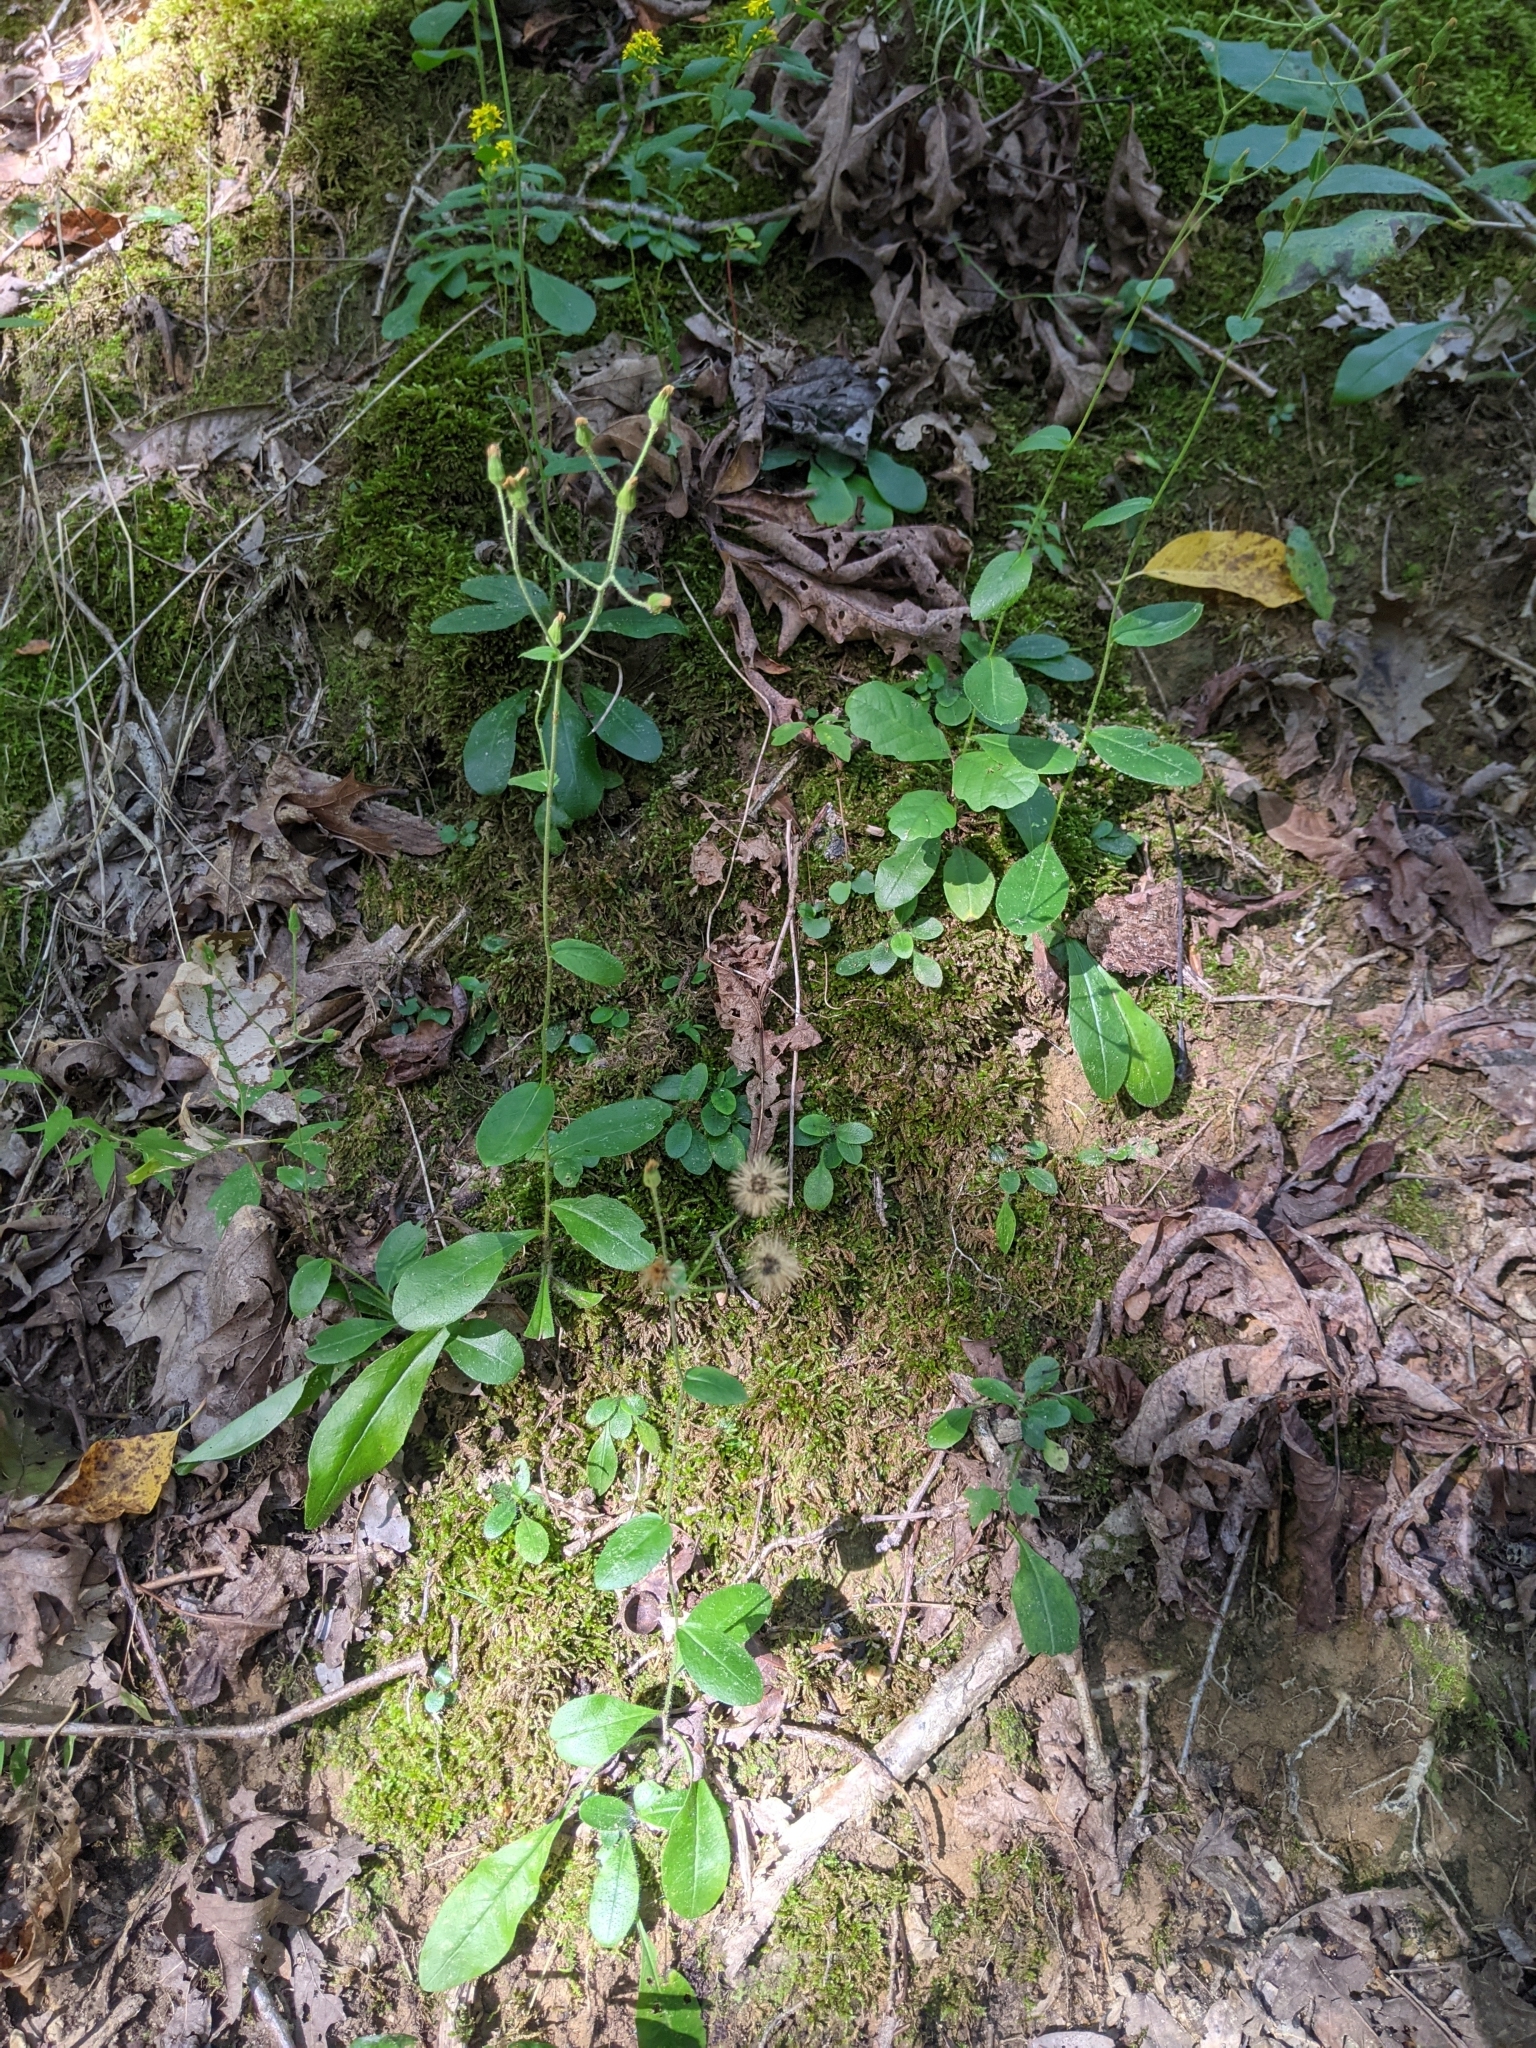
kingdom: Plantae
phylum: Tracheophyta
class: Magnoliopsida
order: Asterales
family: Asteraceae
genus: Hieracium
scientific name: Hieracium scabrum
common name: Rough hawkweed
